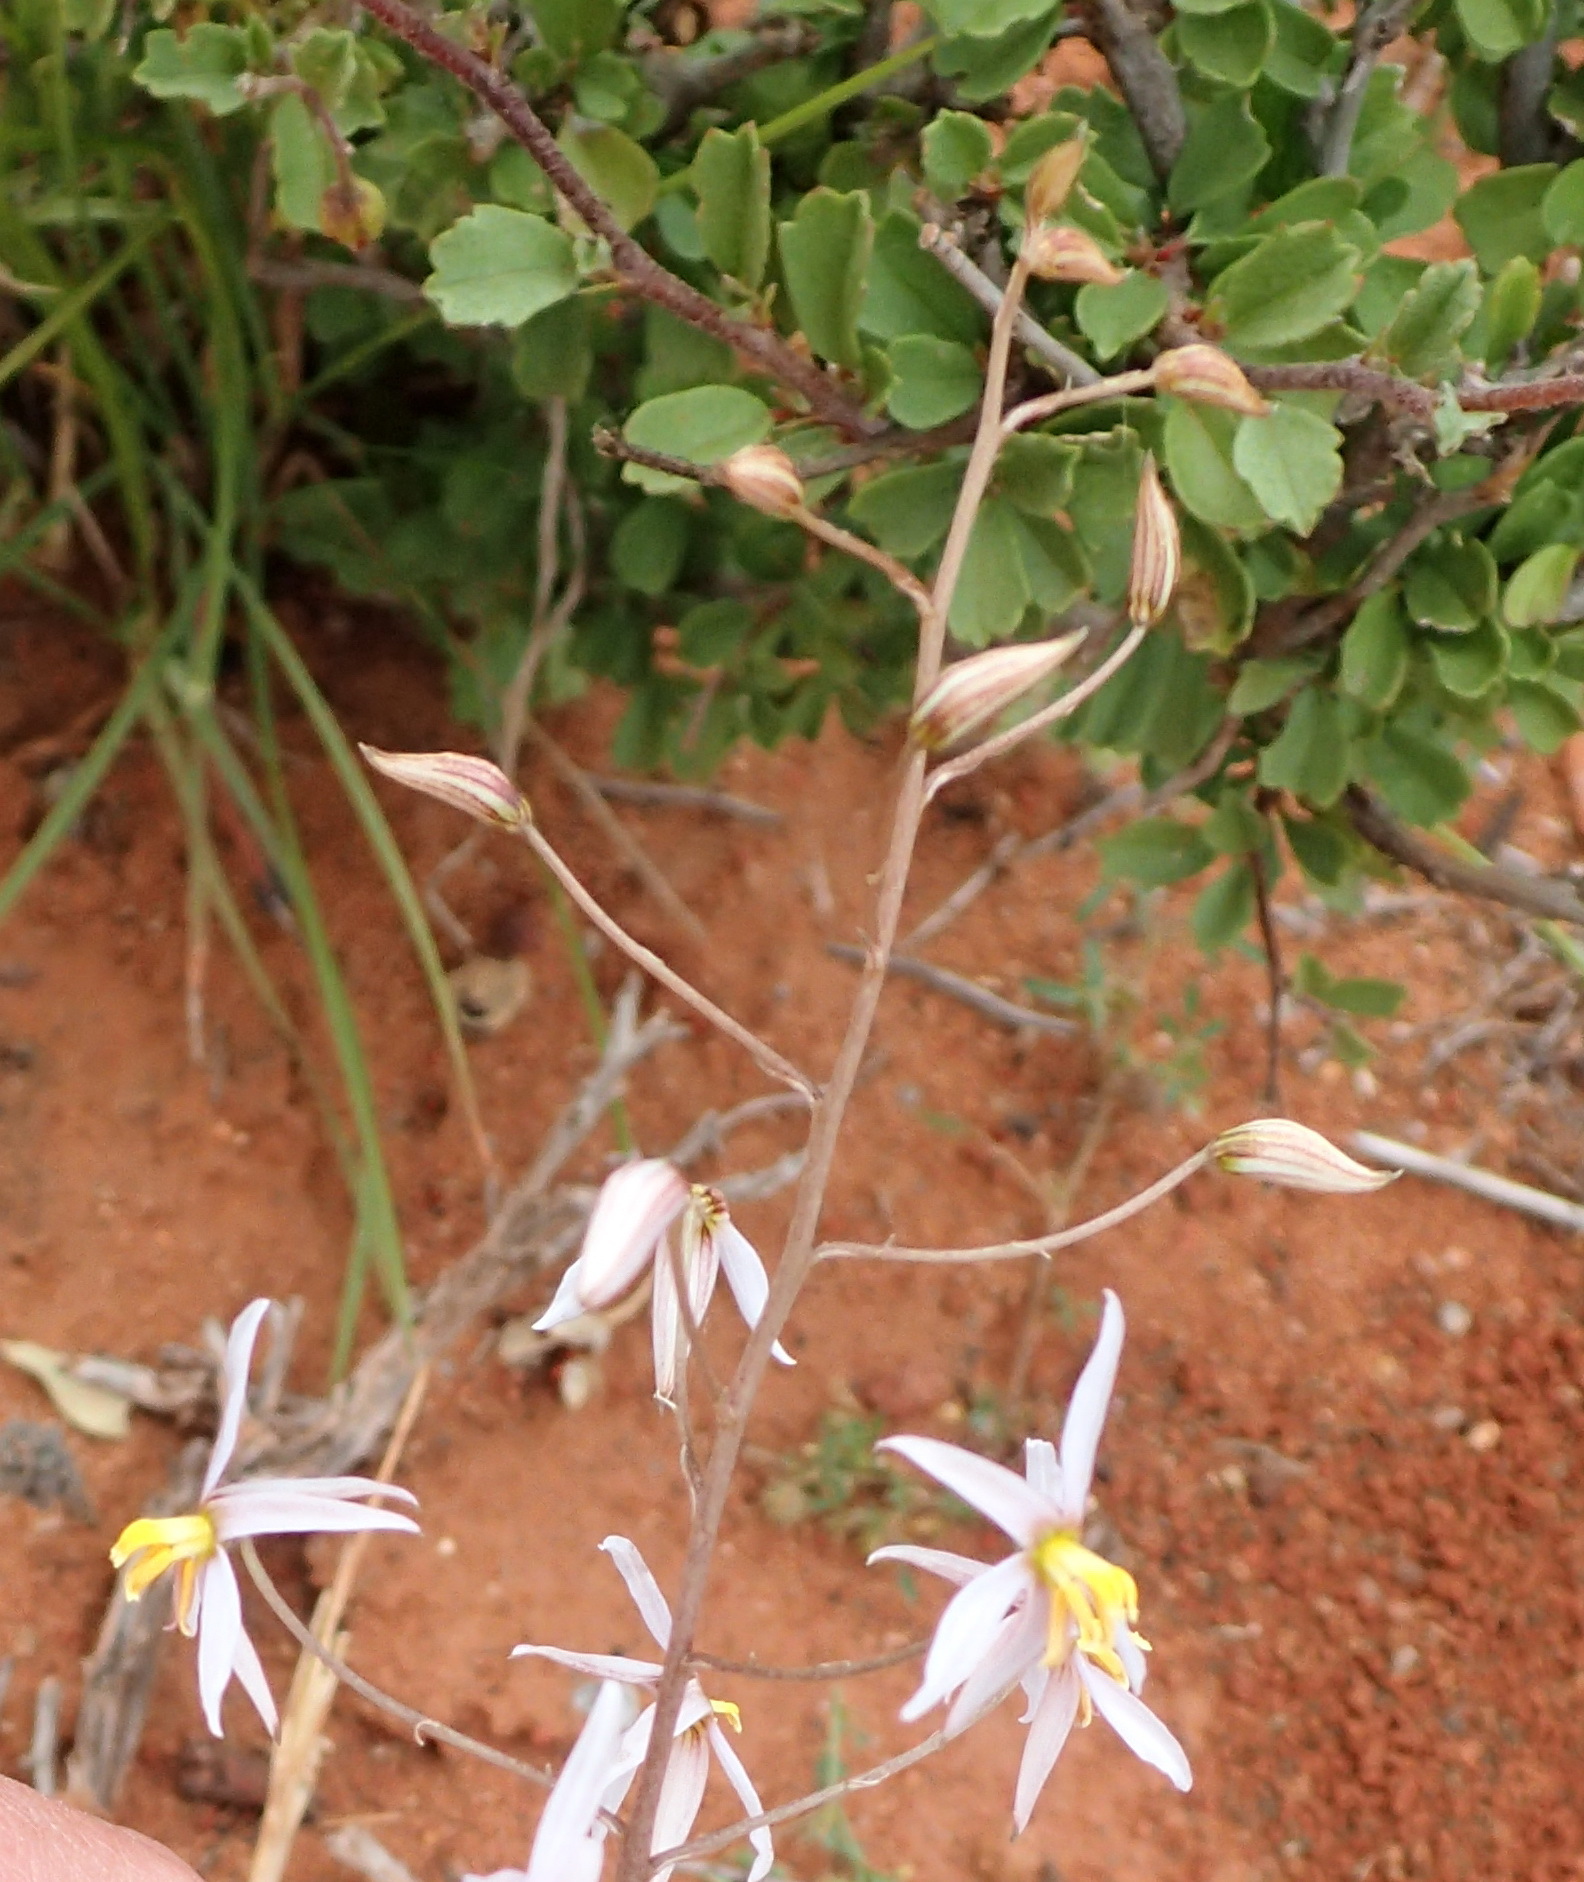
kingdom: Plantae
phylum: Tracheophyta
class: Liliopsida
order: Asparagales
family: Tecophilaeaceae
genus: Cyanella
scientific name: Cyanella hyacinthoides
